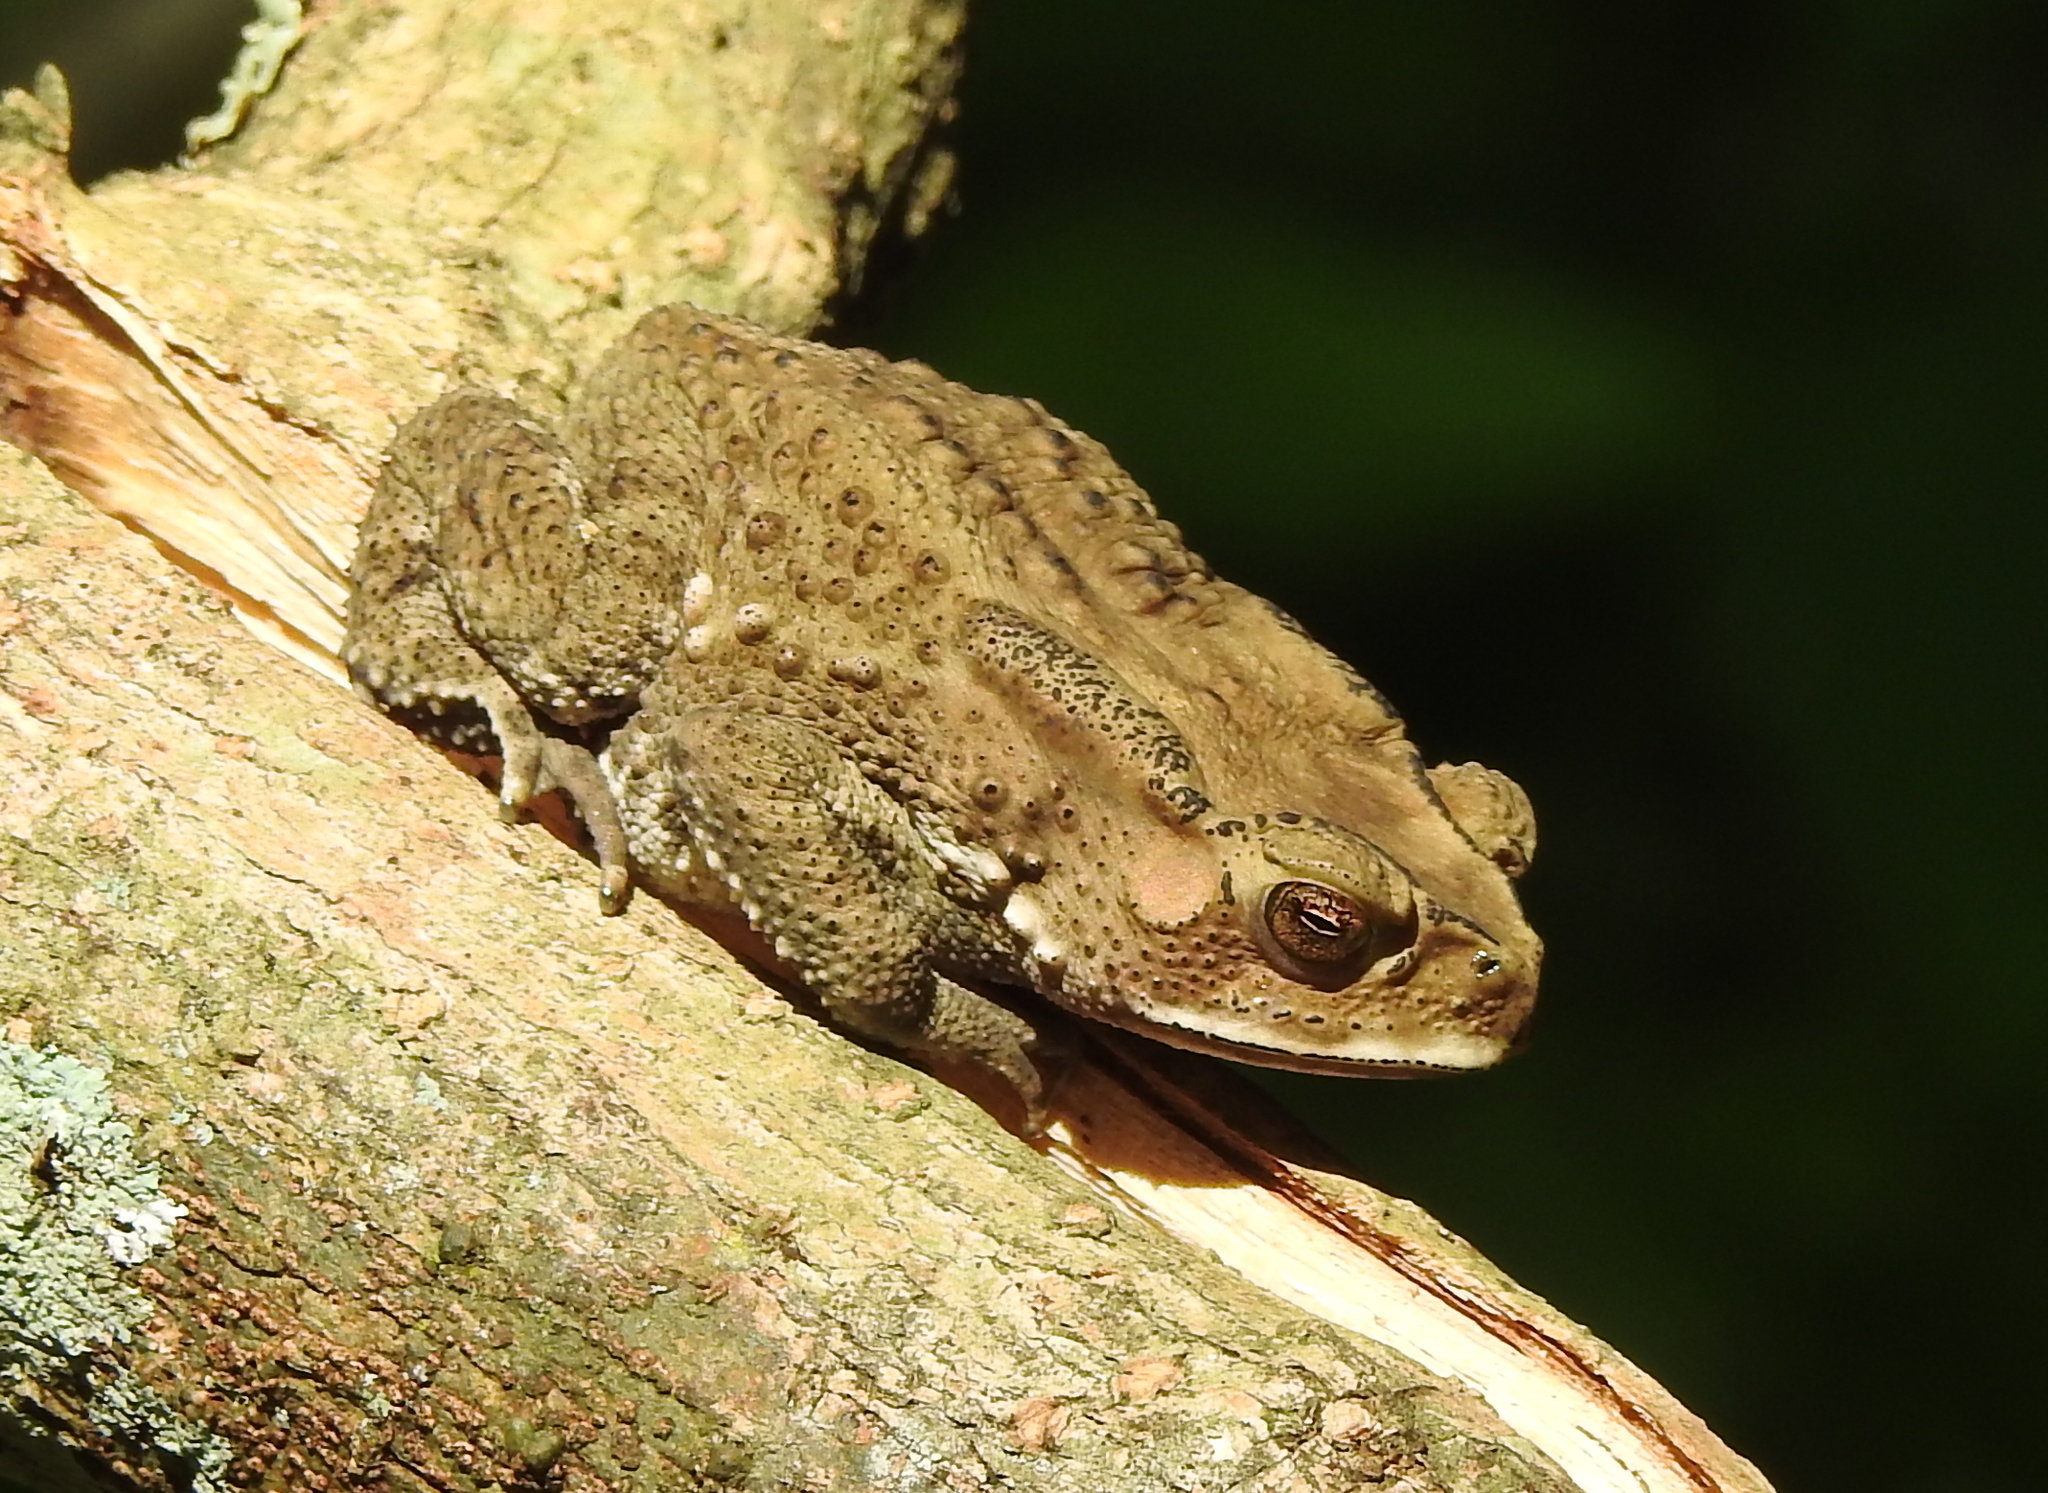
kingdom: Animalia
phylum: Chordata
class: Amphibia
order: Anura
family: Bufonidae
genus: Duttaphrynus
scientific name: Duttaphrynus melanostictus
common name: Common sunda toad
